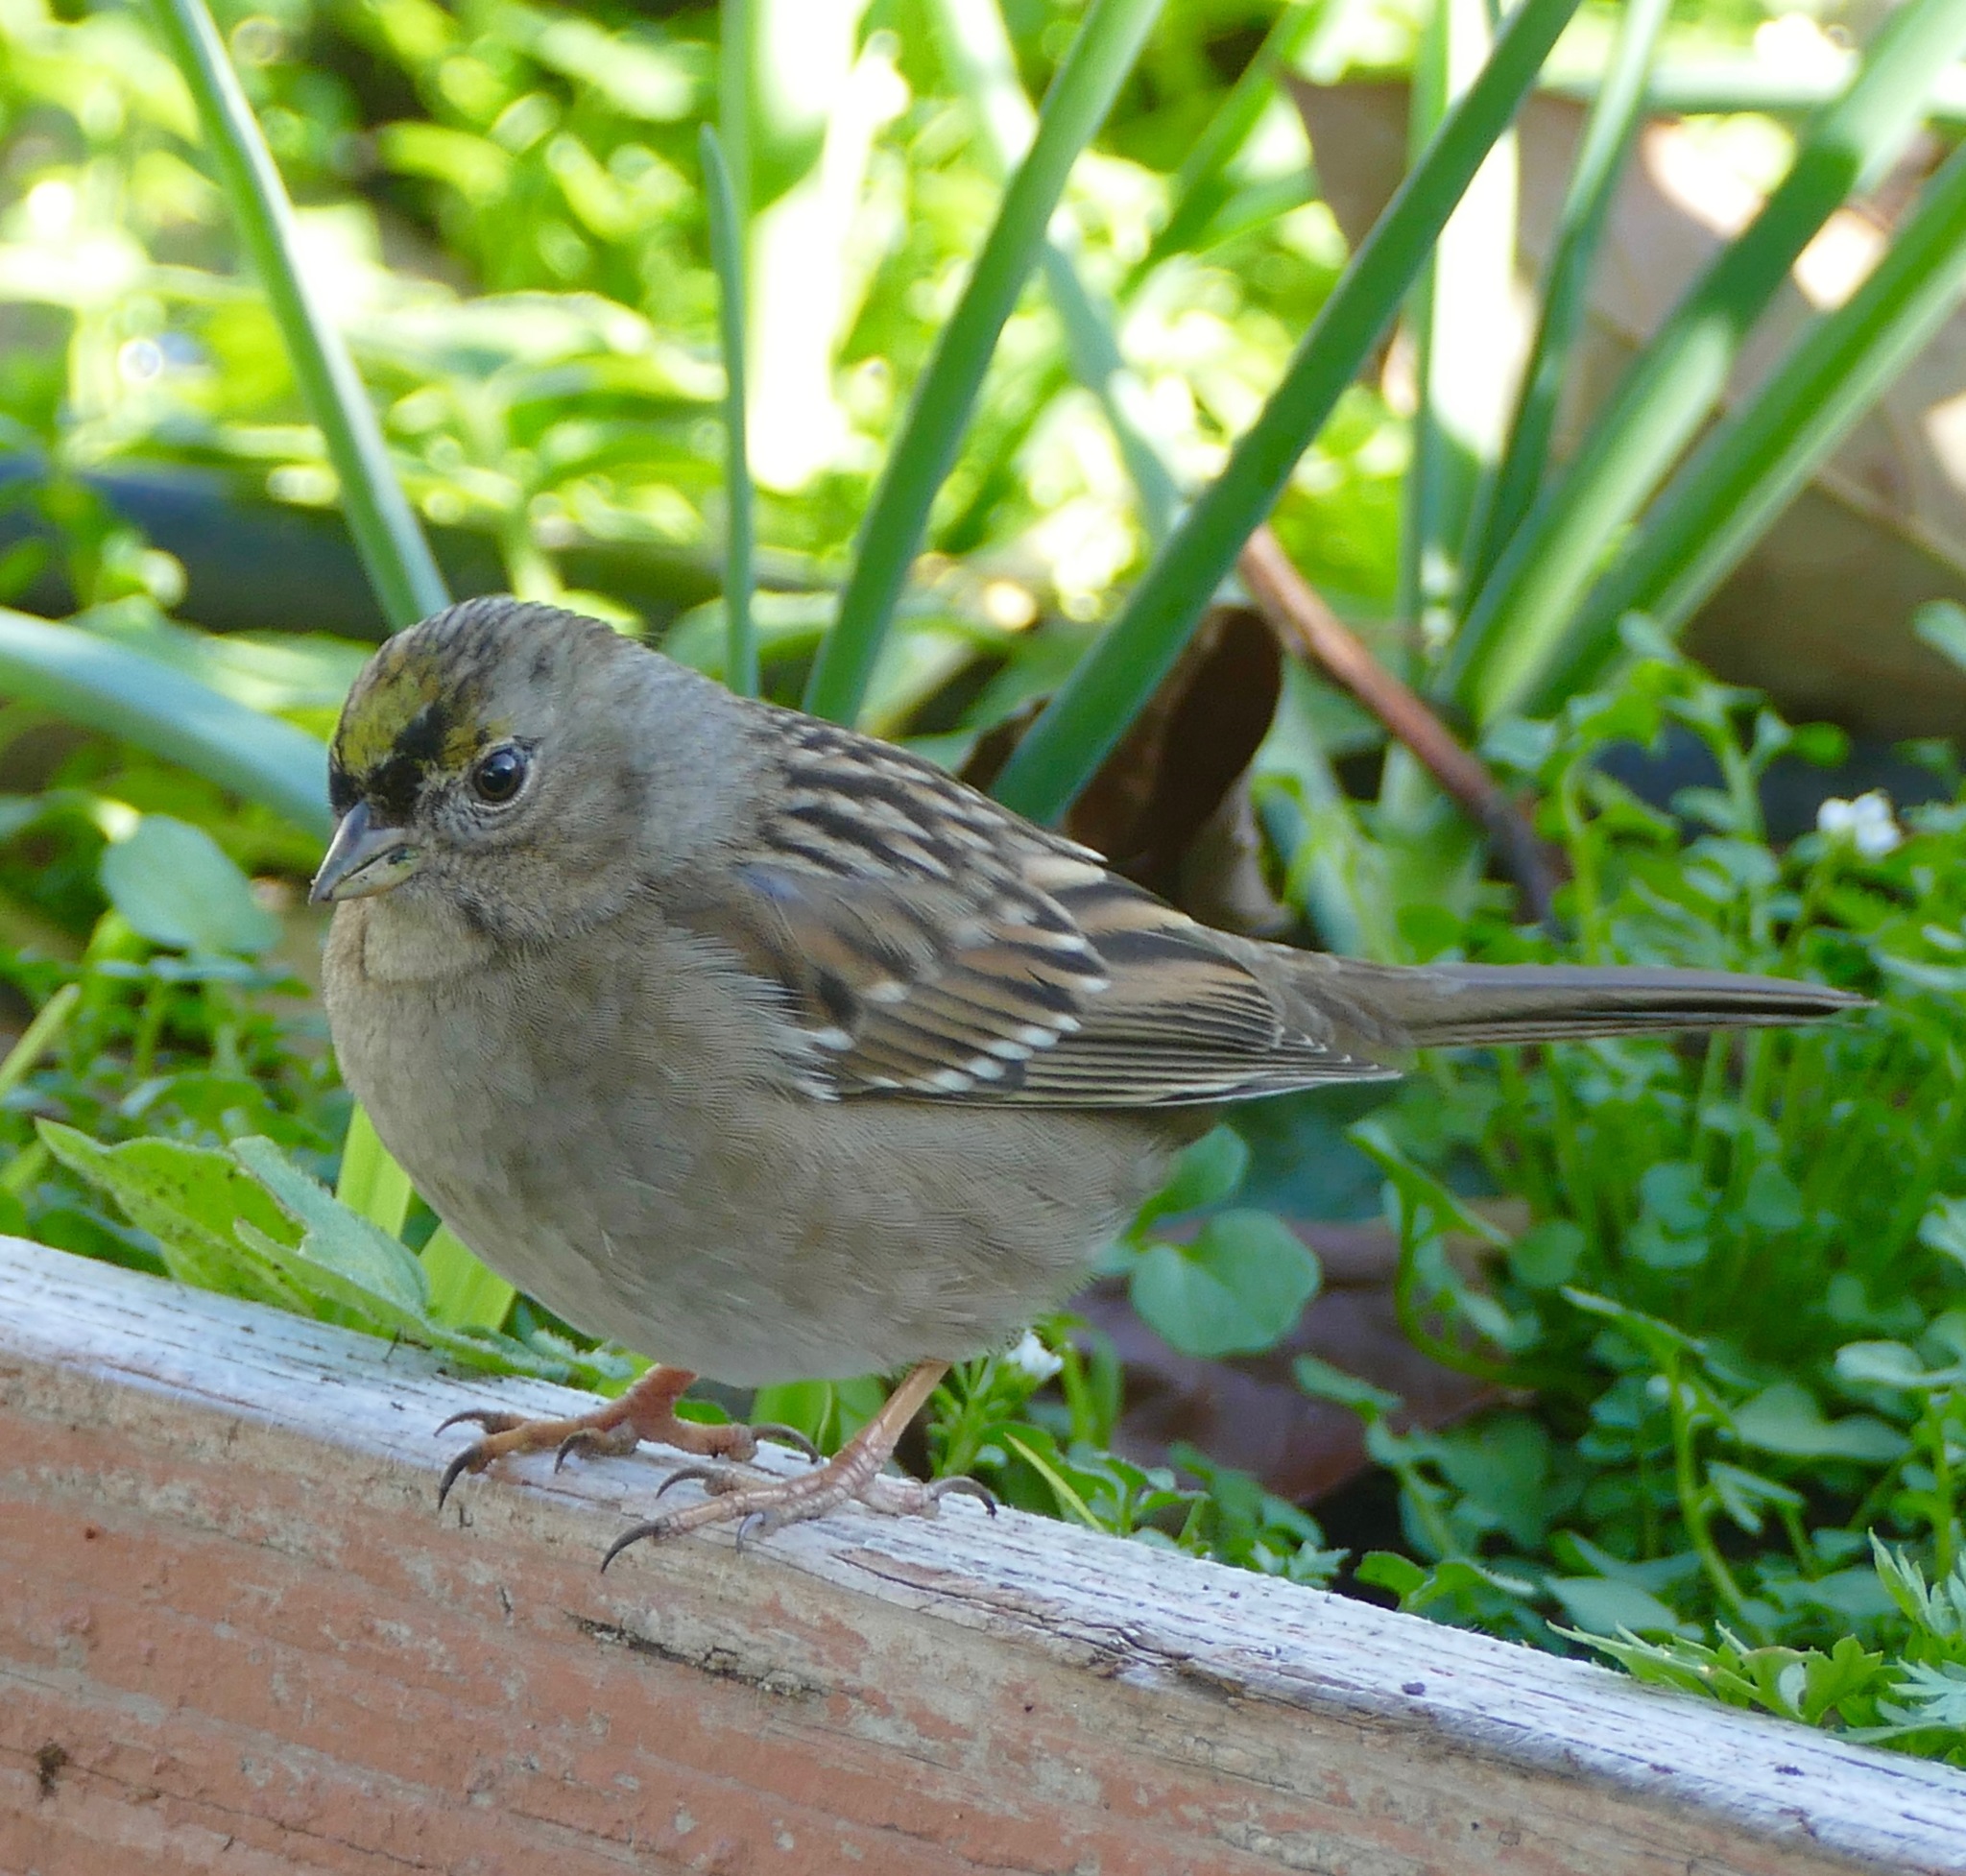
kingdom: Animalia
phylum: Chordata
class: Aves
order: Passeriformes
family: Passerellidae
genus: Zonotrichia
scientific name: Zonotrichia atricapilla
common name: Golden-crowned sparrow
